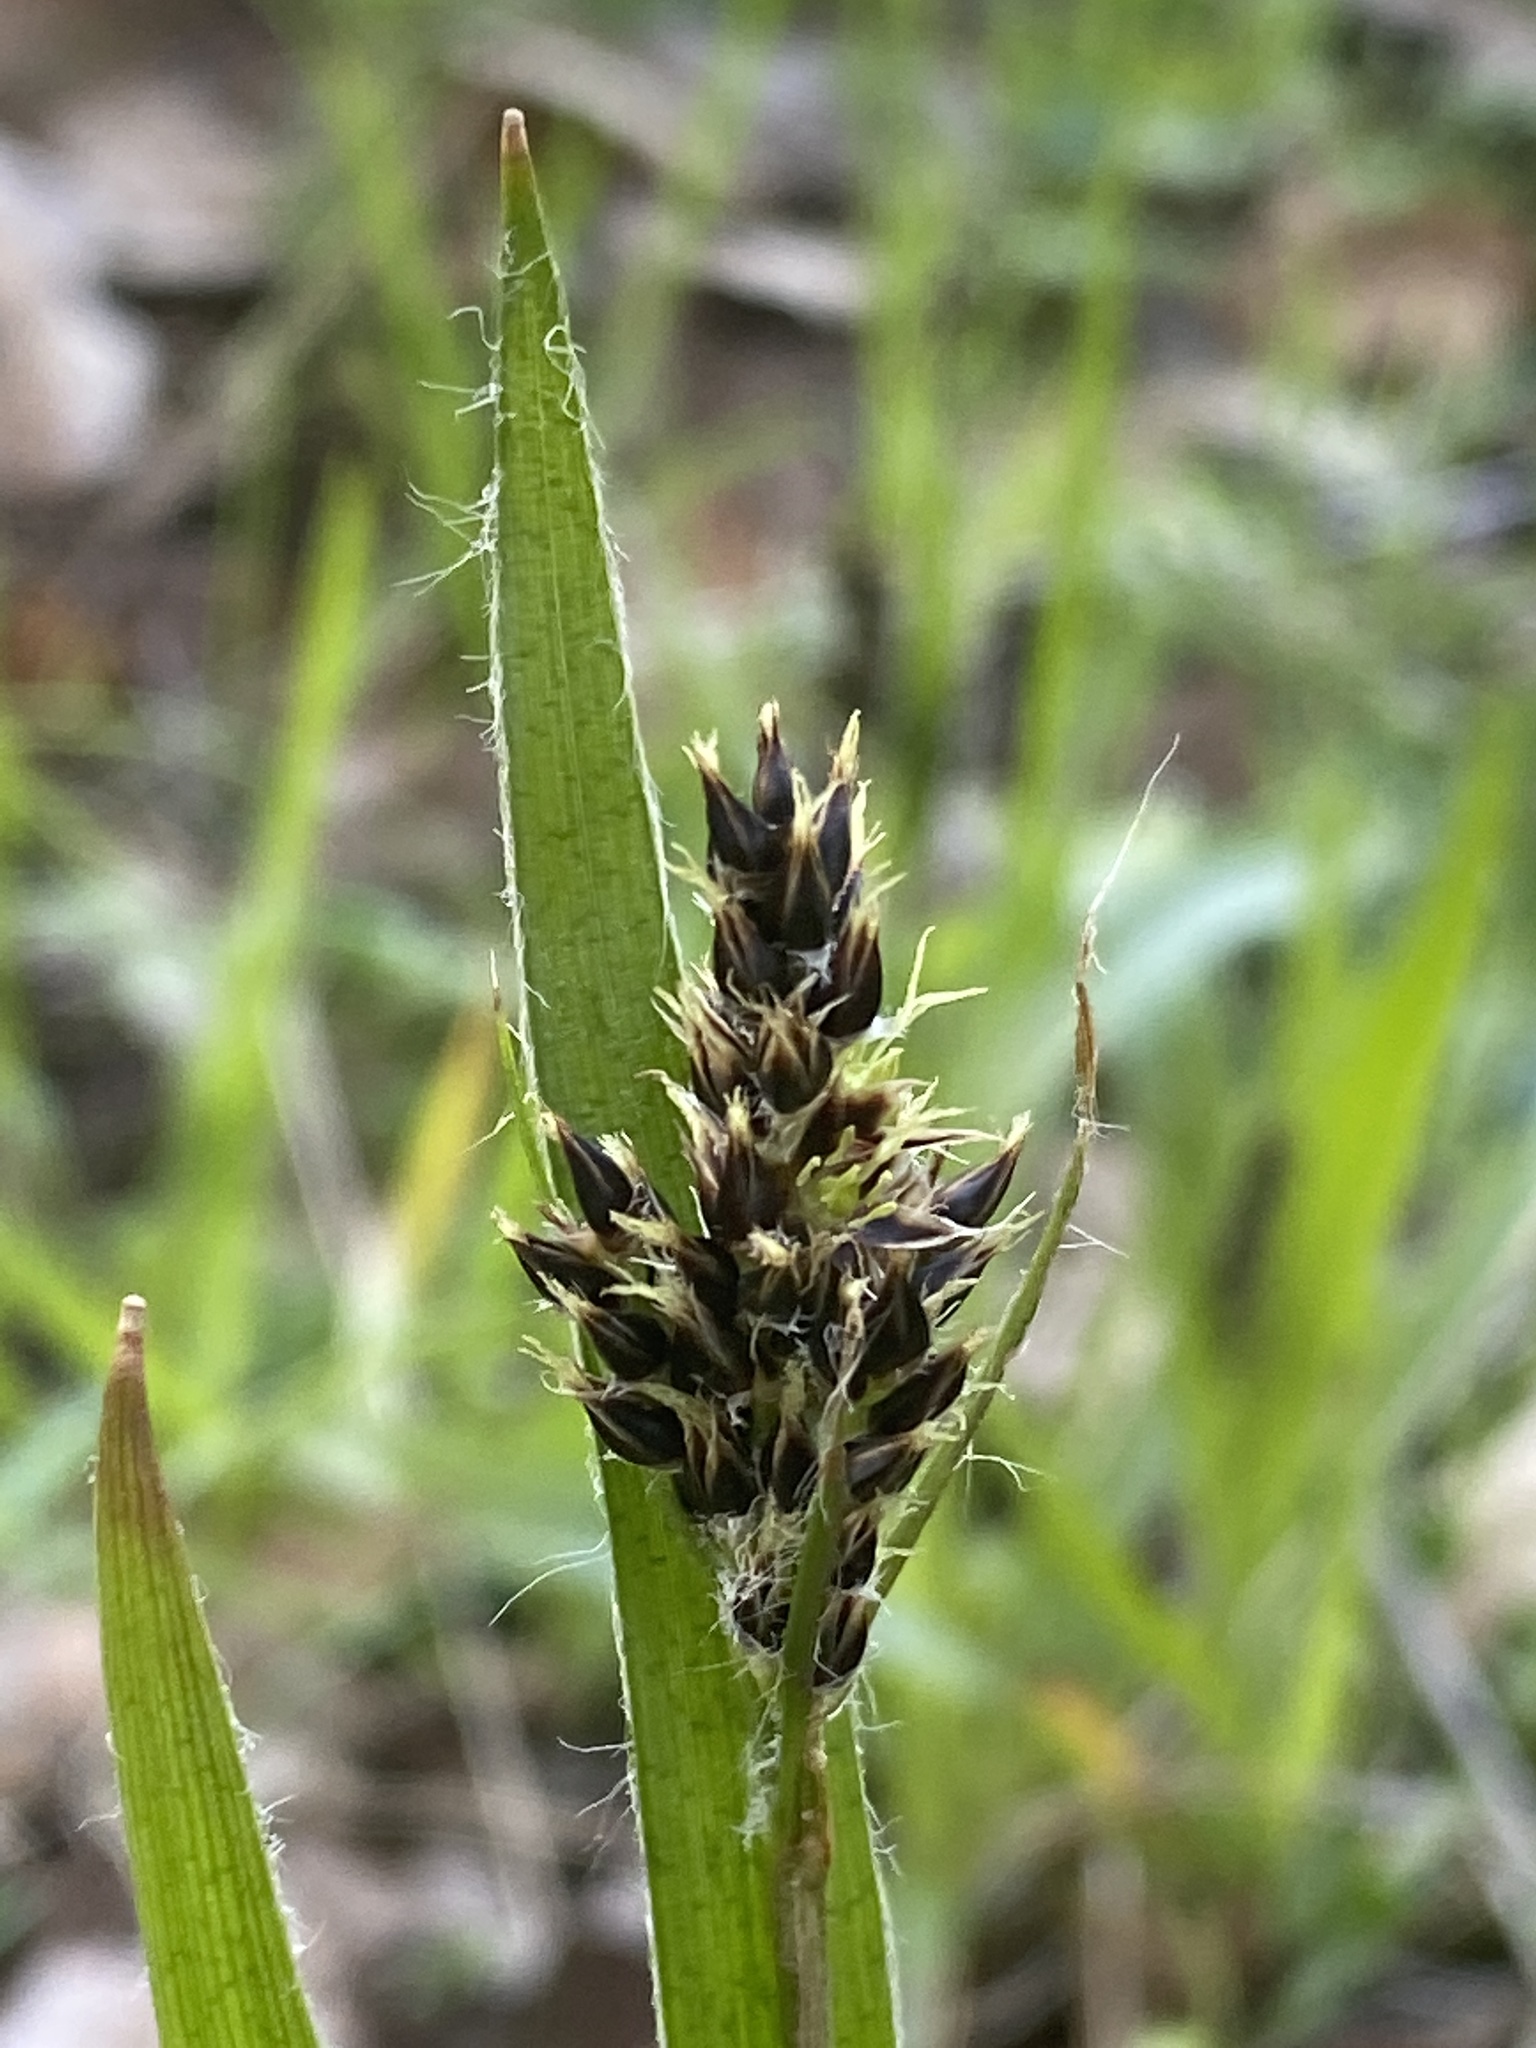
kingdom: Plantae
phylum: Tracheophyta
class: Liliopsida
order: Poales
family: Juncaceae
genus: Luzula
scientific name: Luzula comosa
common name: Pacific woodrush
